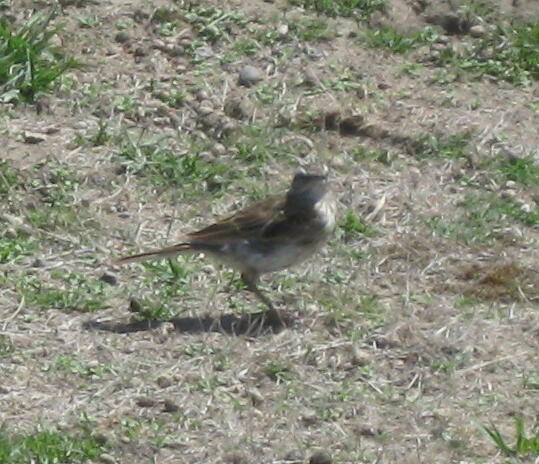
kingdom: Animalia
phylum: Chordata
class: Aves
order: Passeriformes
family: Motacillidae
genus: Anthus
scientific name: Anthus novaeseelandiae
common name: New zealand pipit
